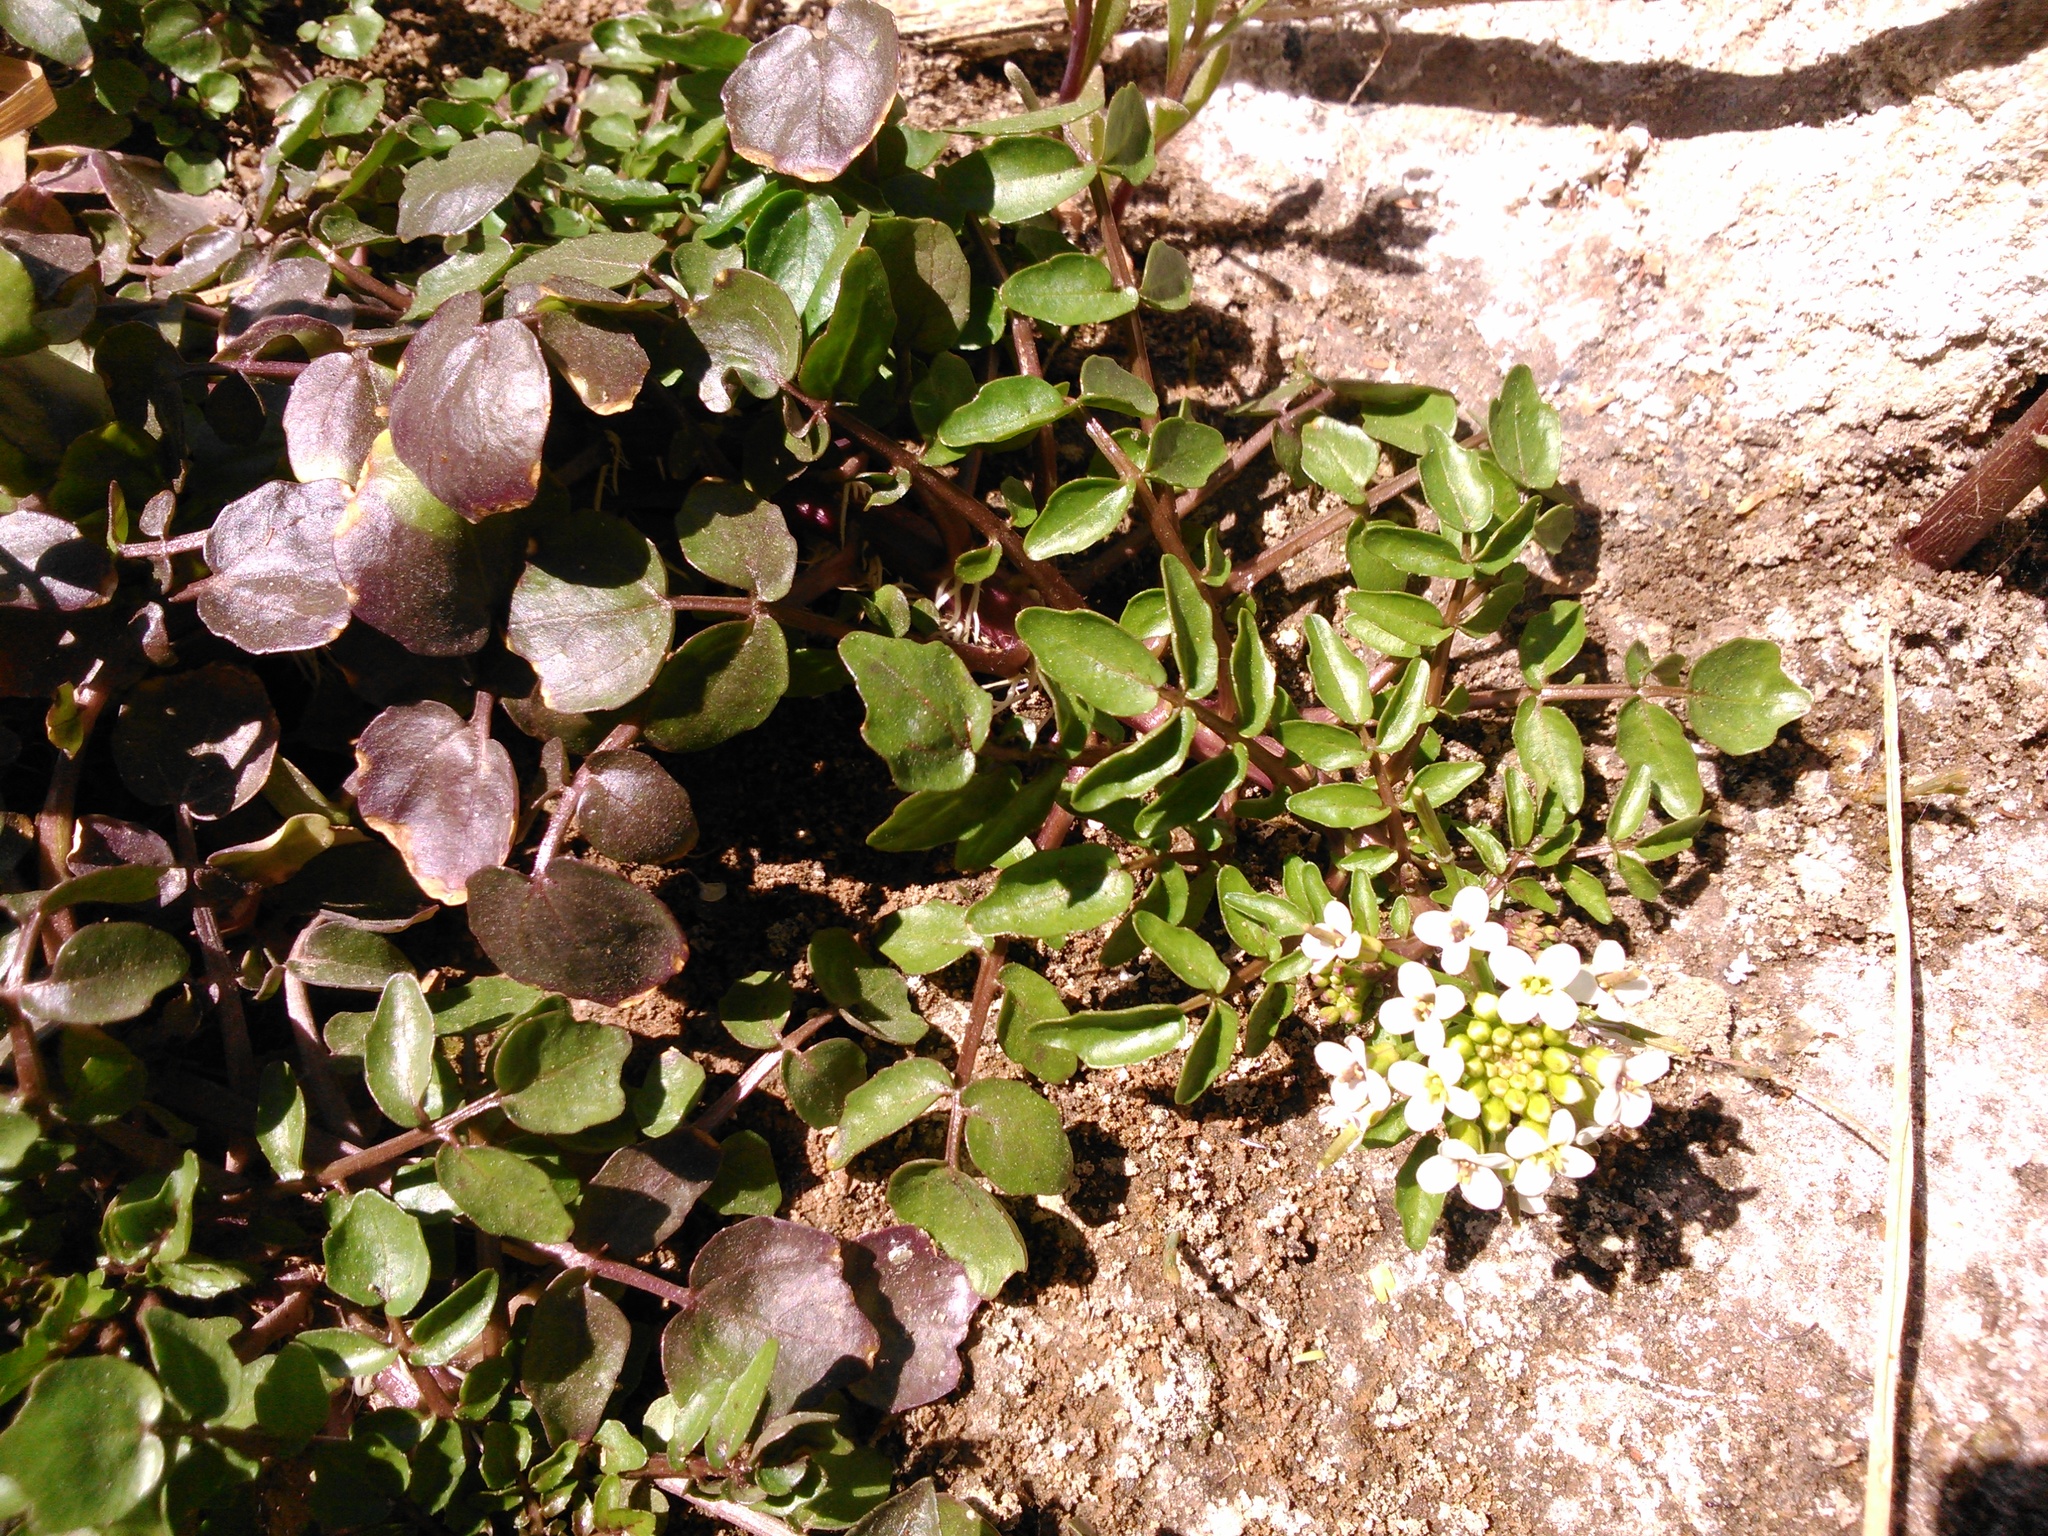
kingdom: Plantae
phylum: Tracheophyta
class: Magnoliopsida
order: Brassicales
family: Brassicaceae
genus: Nasturtium
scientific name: Nasturtium officinale
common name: Watercress
